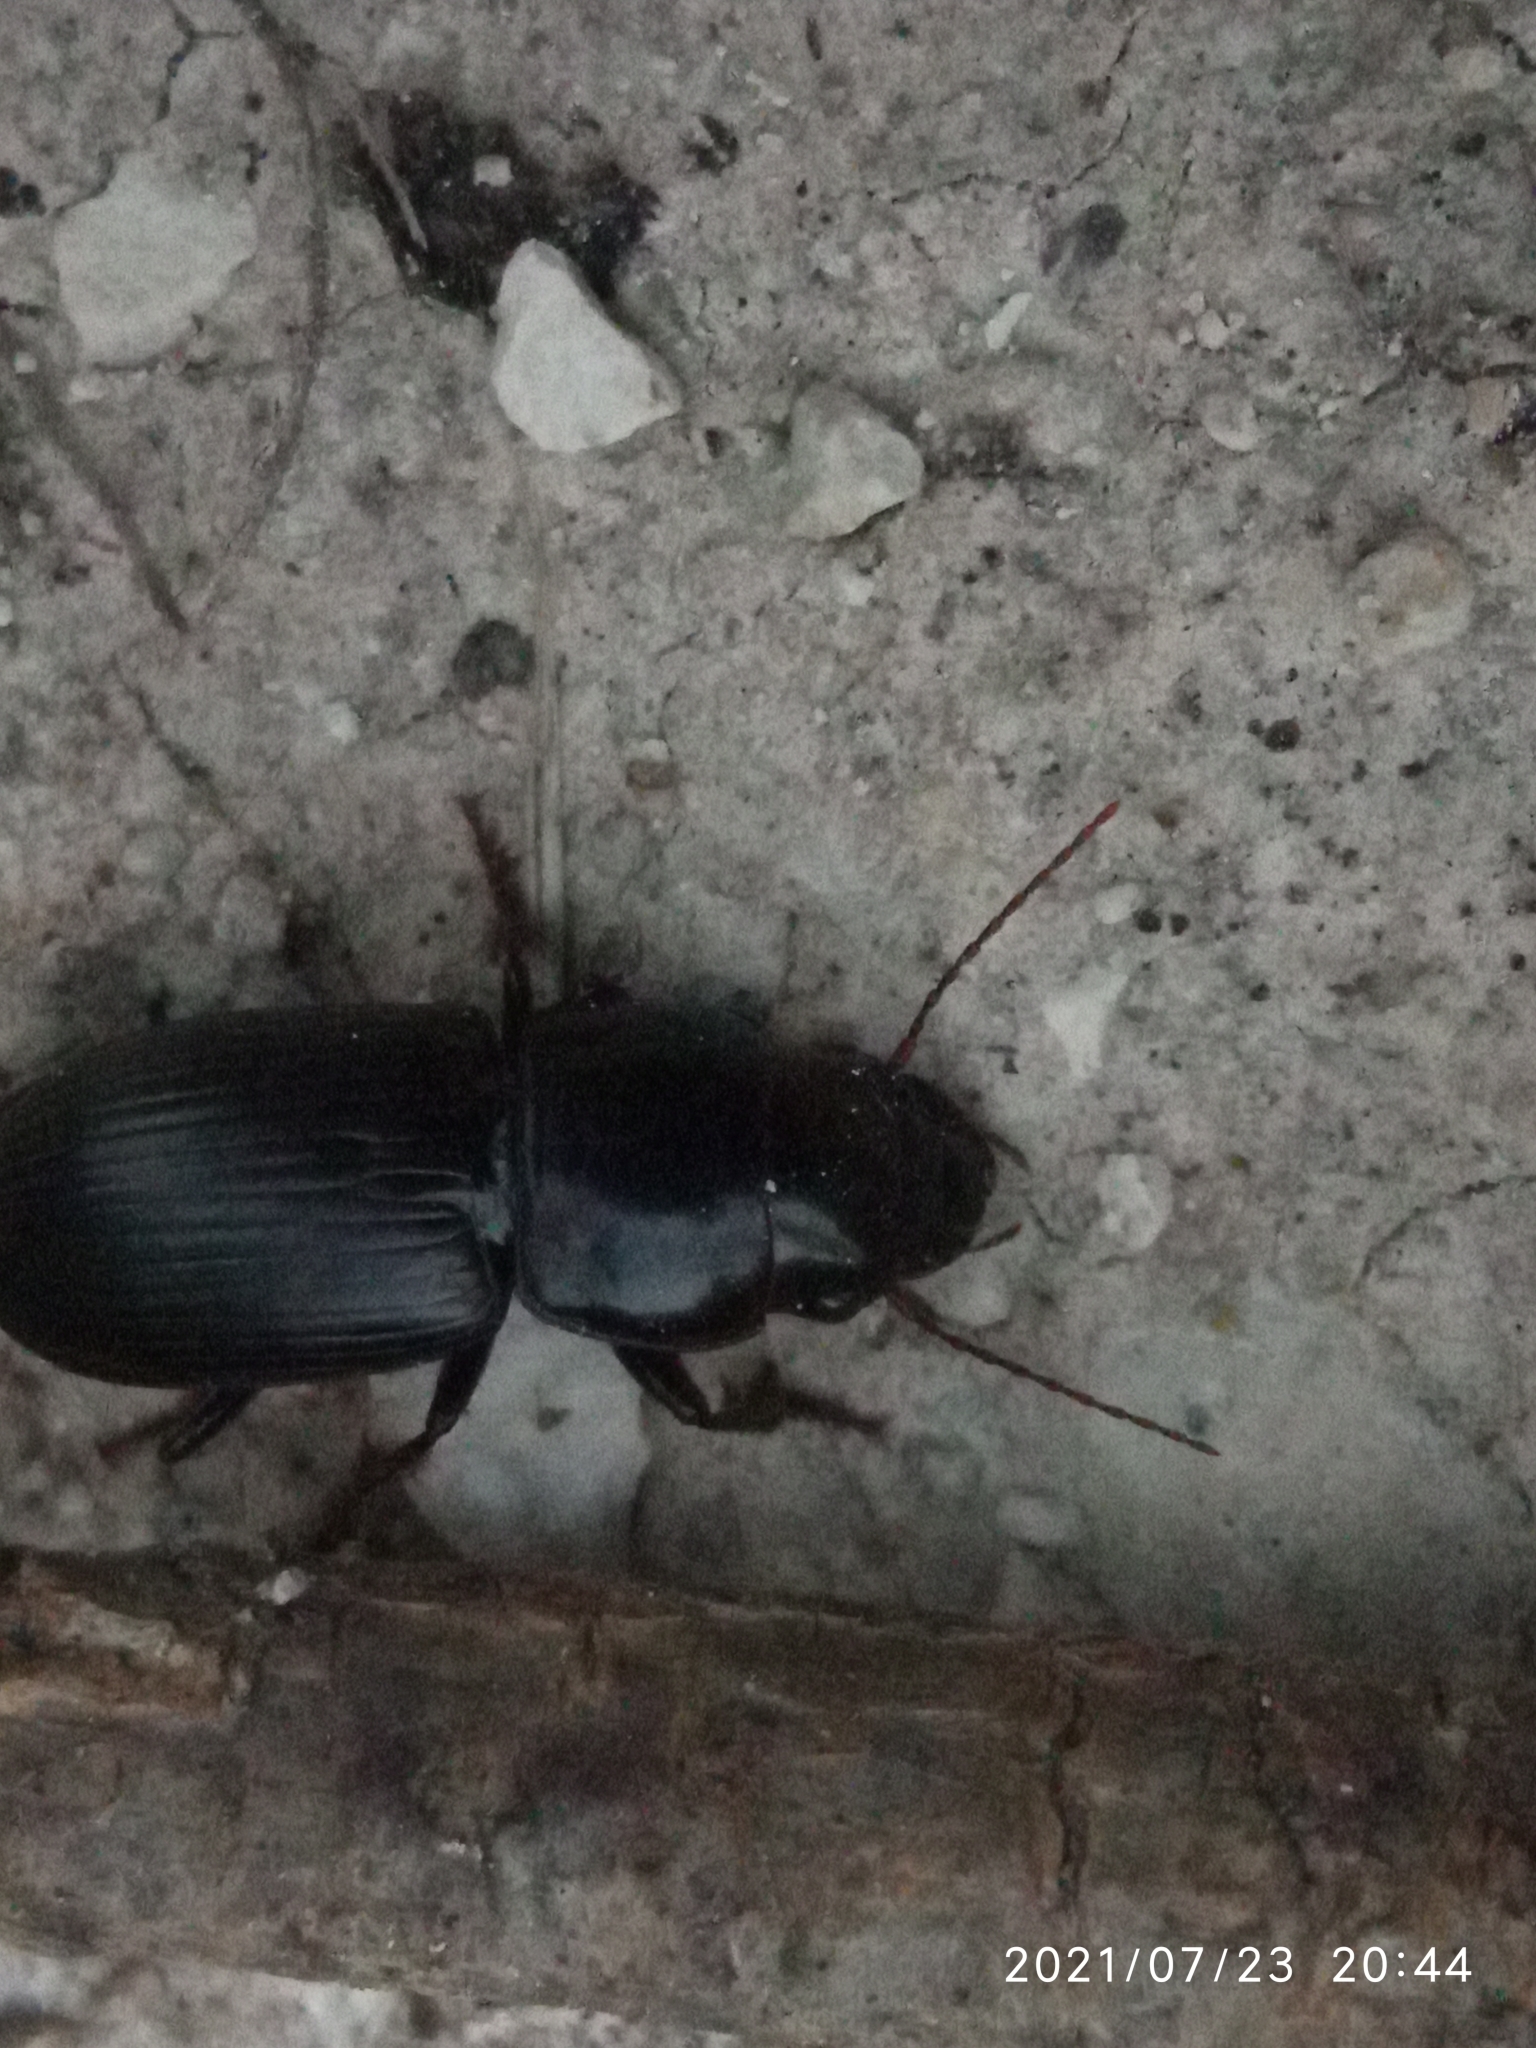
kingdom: Animalia
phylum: Arthropoda
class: Insecta
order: Coleoptera
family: Carabidae
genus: Acinopus
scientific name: Acinopus picipes
